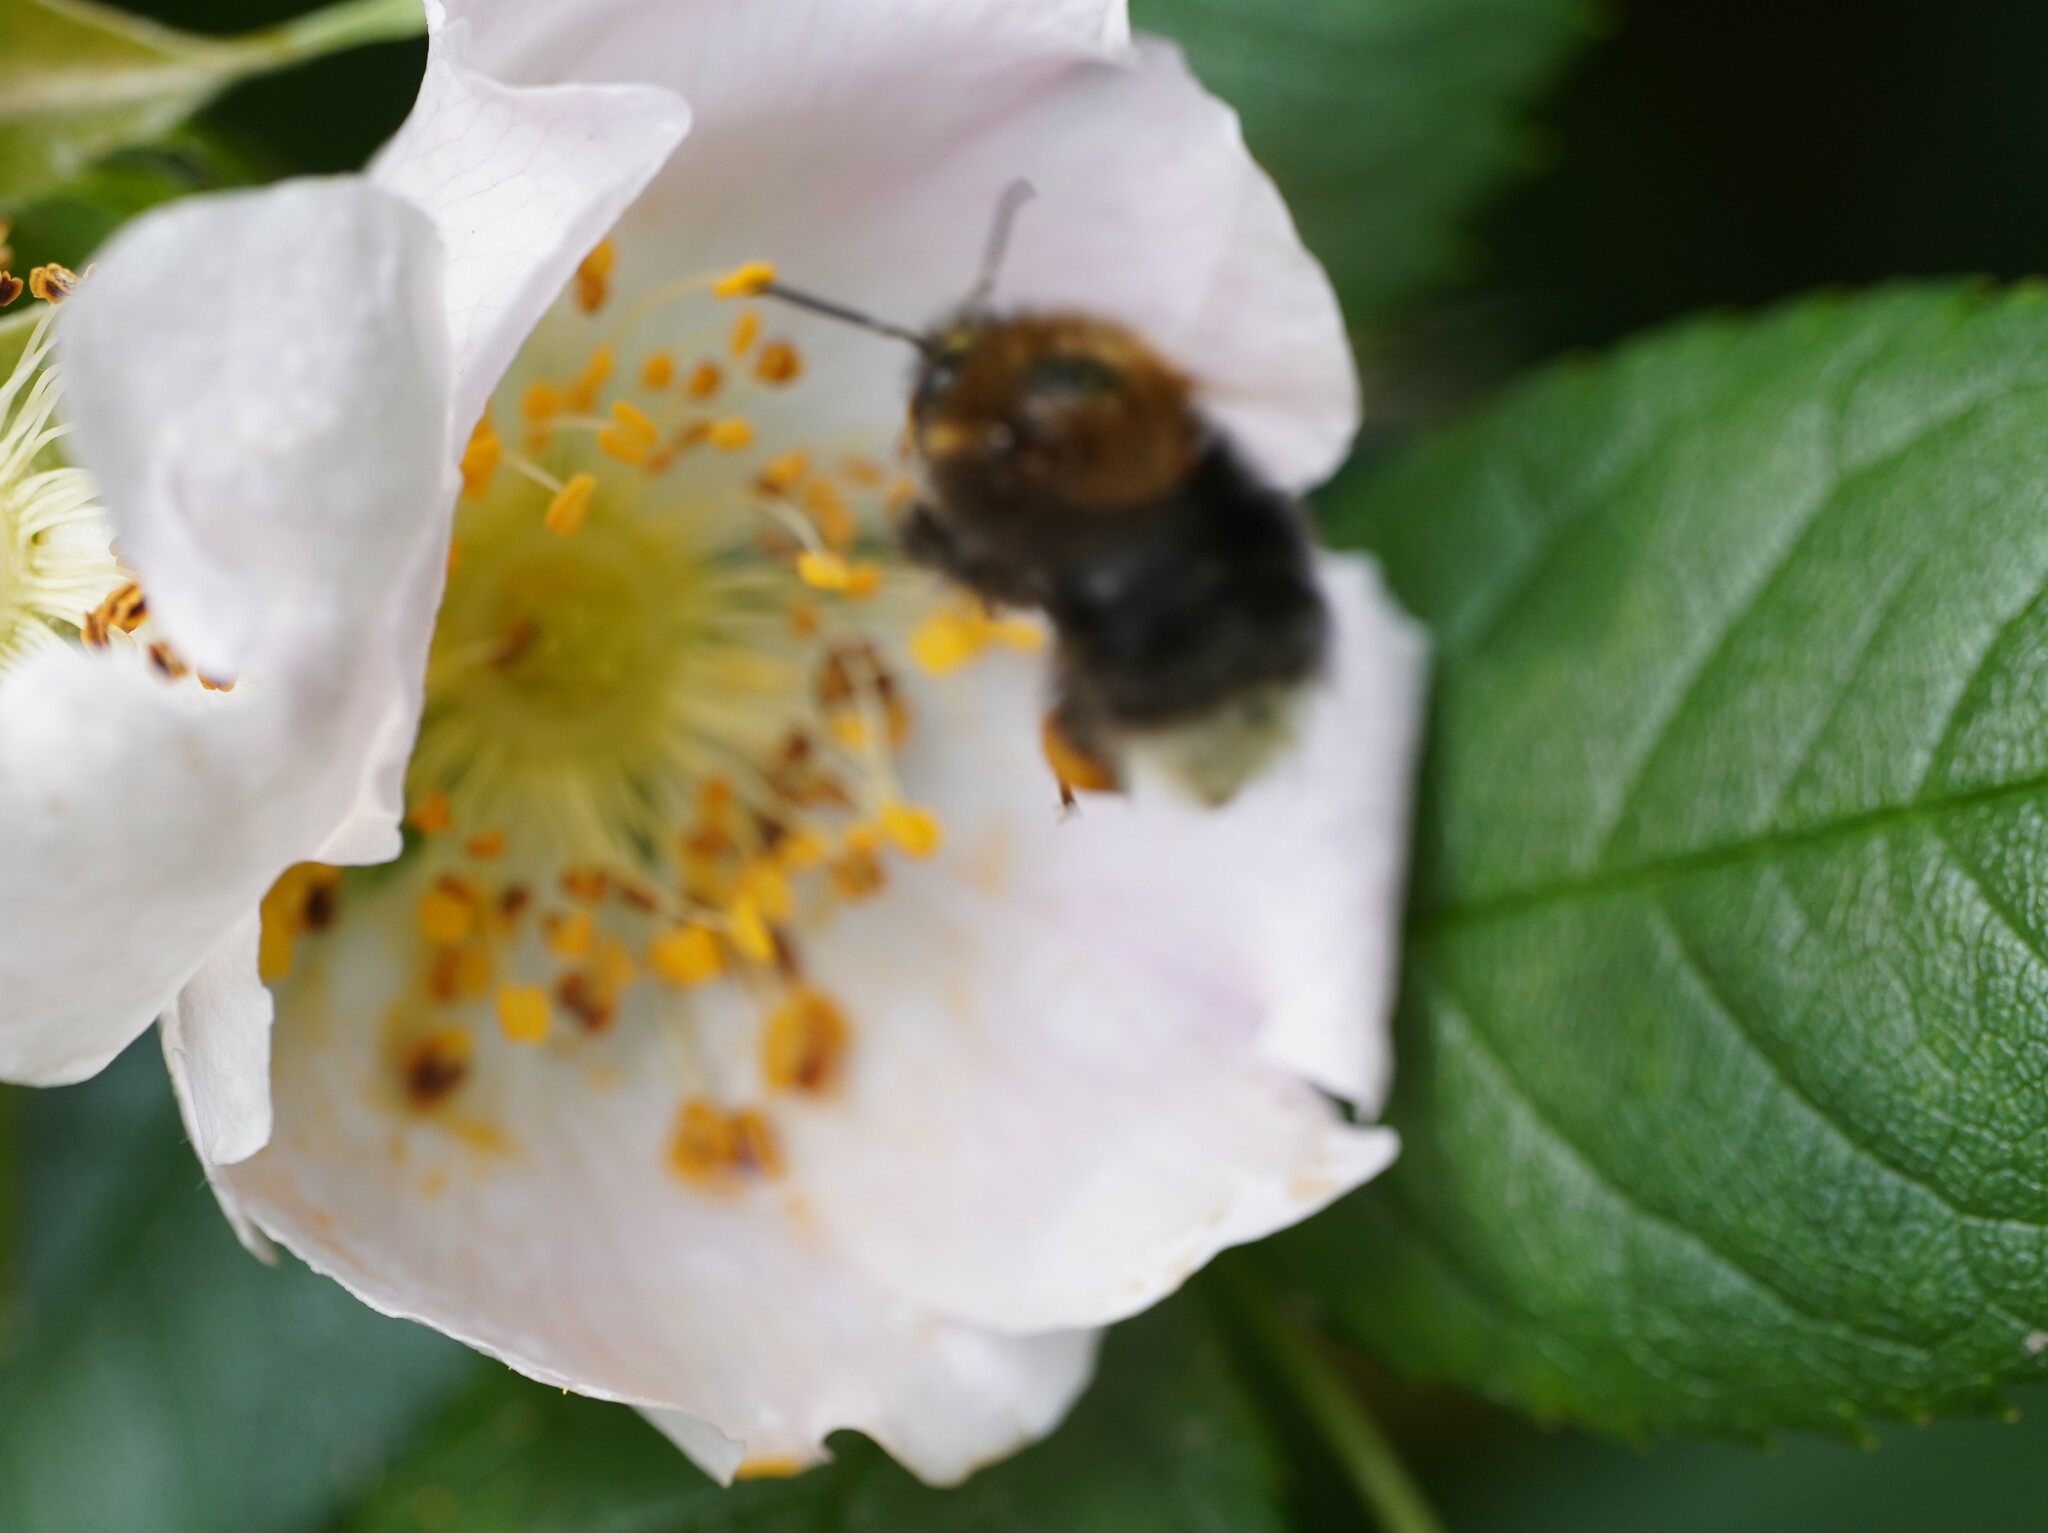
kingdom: Animalia
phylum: Arthropoda
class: Insecta
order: Hymenoptera
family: Apidae
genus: Bombus
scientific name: Bombus hypnorum
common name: New garden bumblebee
